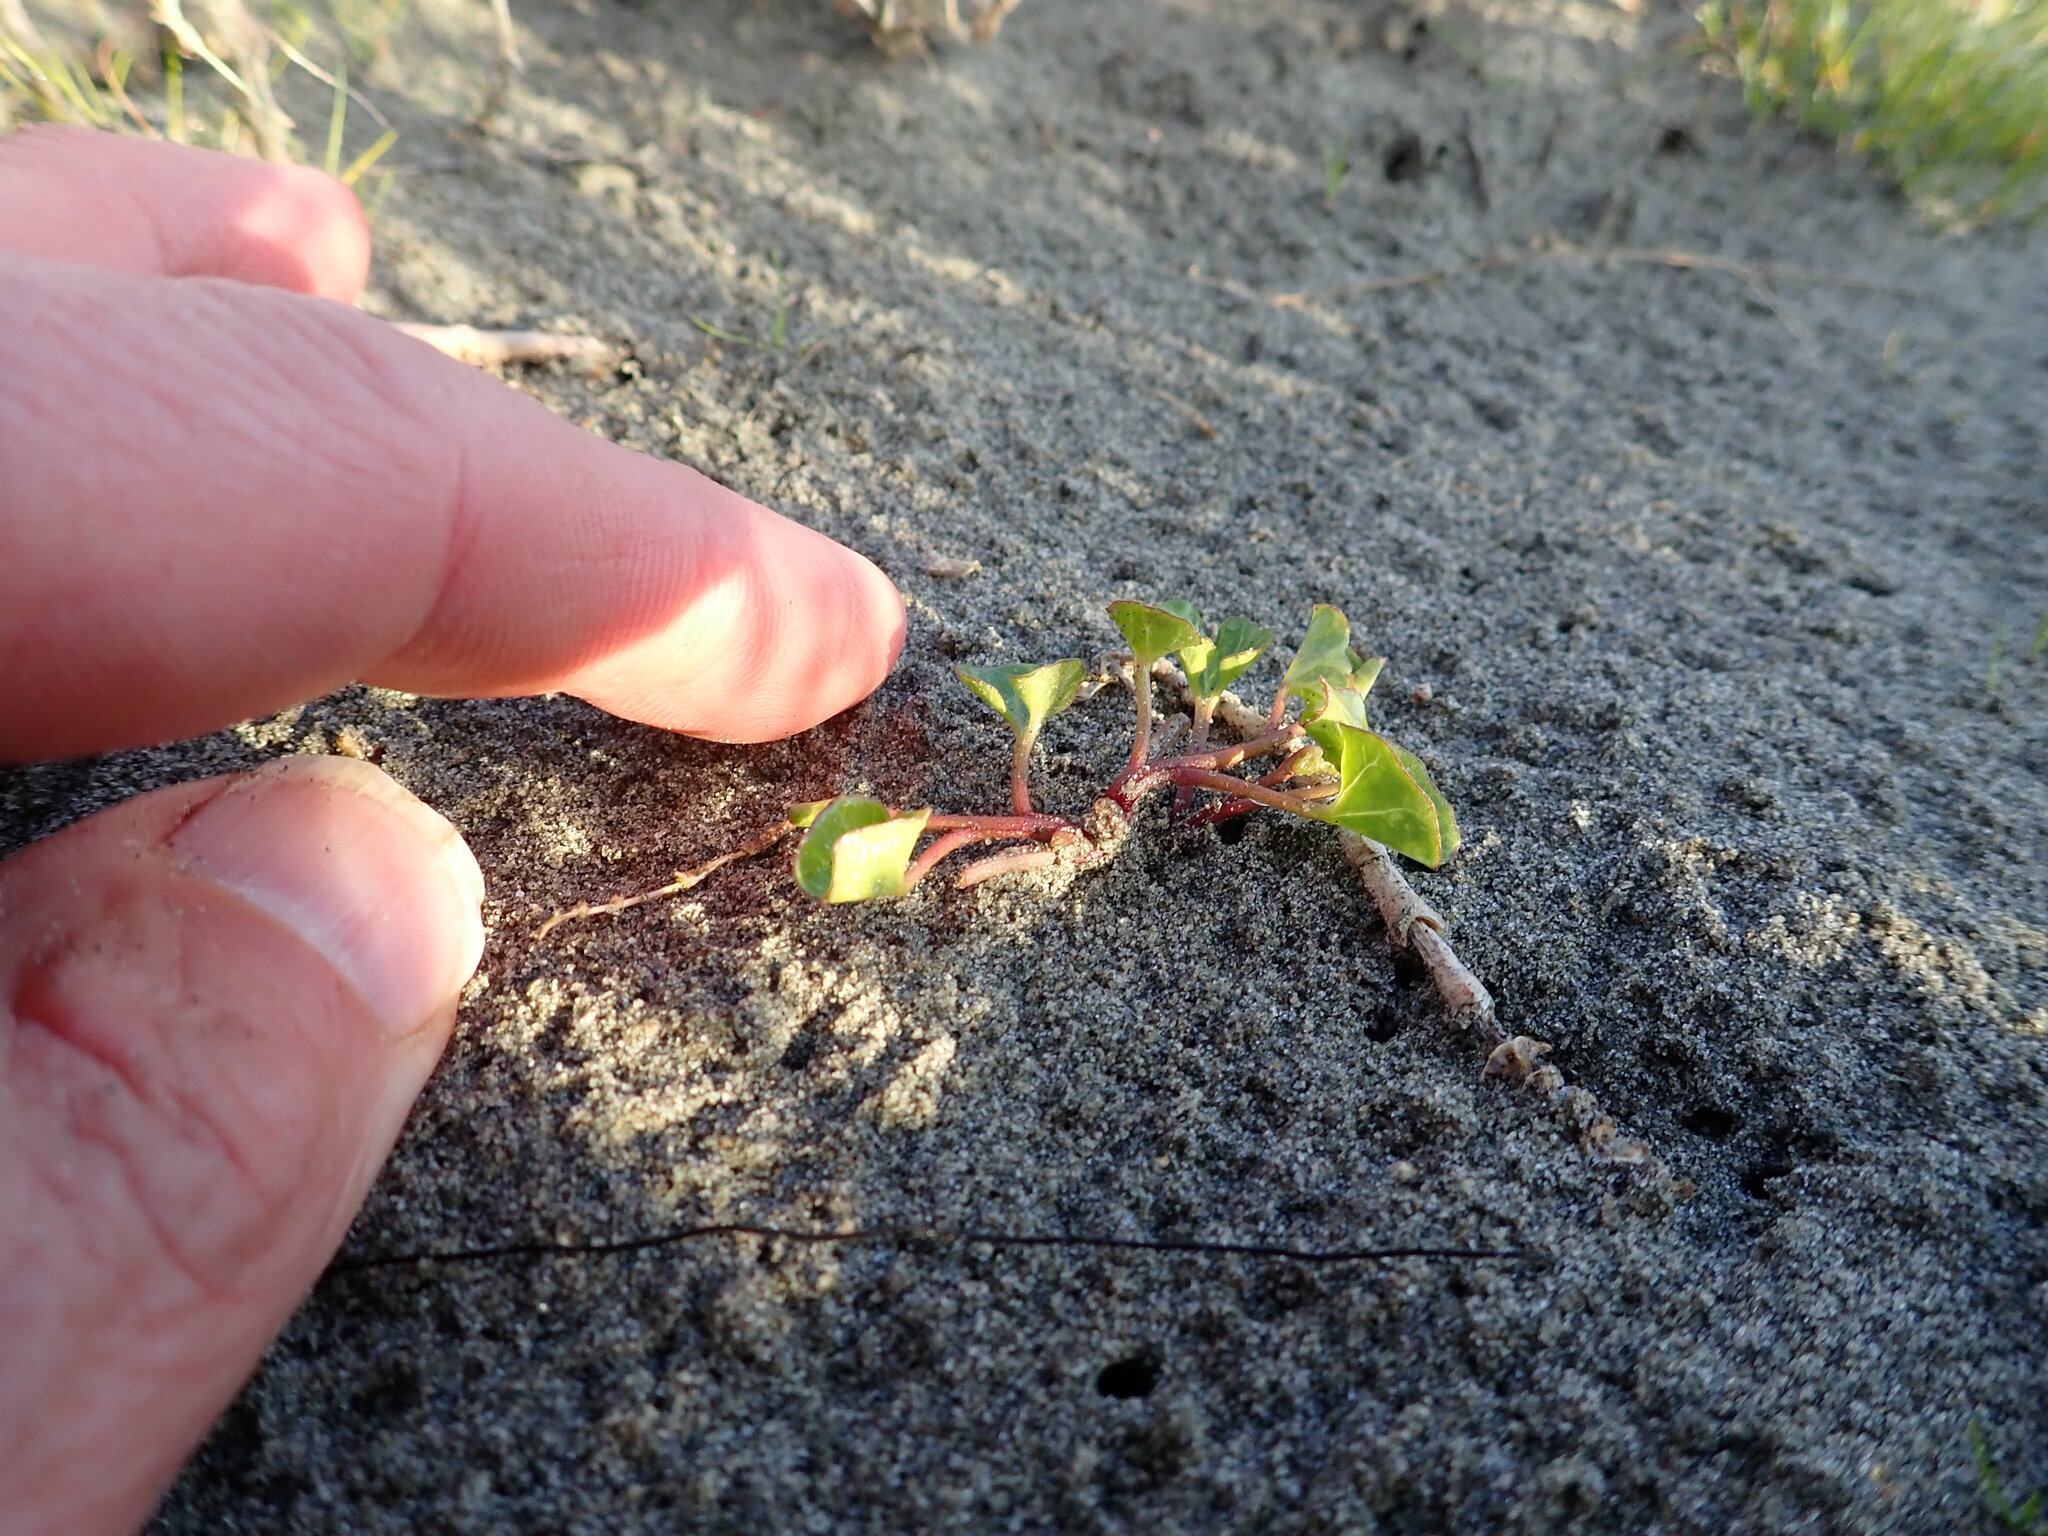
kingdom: Plantae
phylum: Tracheophyta
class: Magnoliopsida
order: Solanales
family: Convolvulaceae
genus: Calystegia
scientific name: Calystegia soldanella
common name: Sea bindweed
